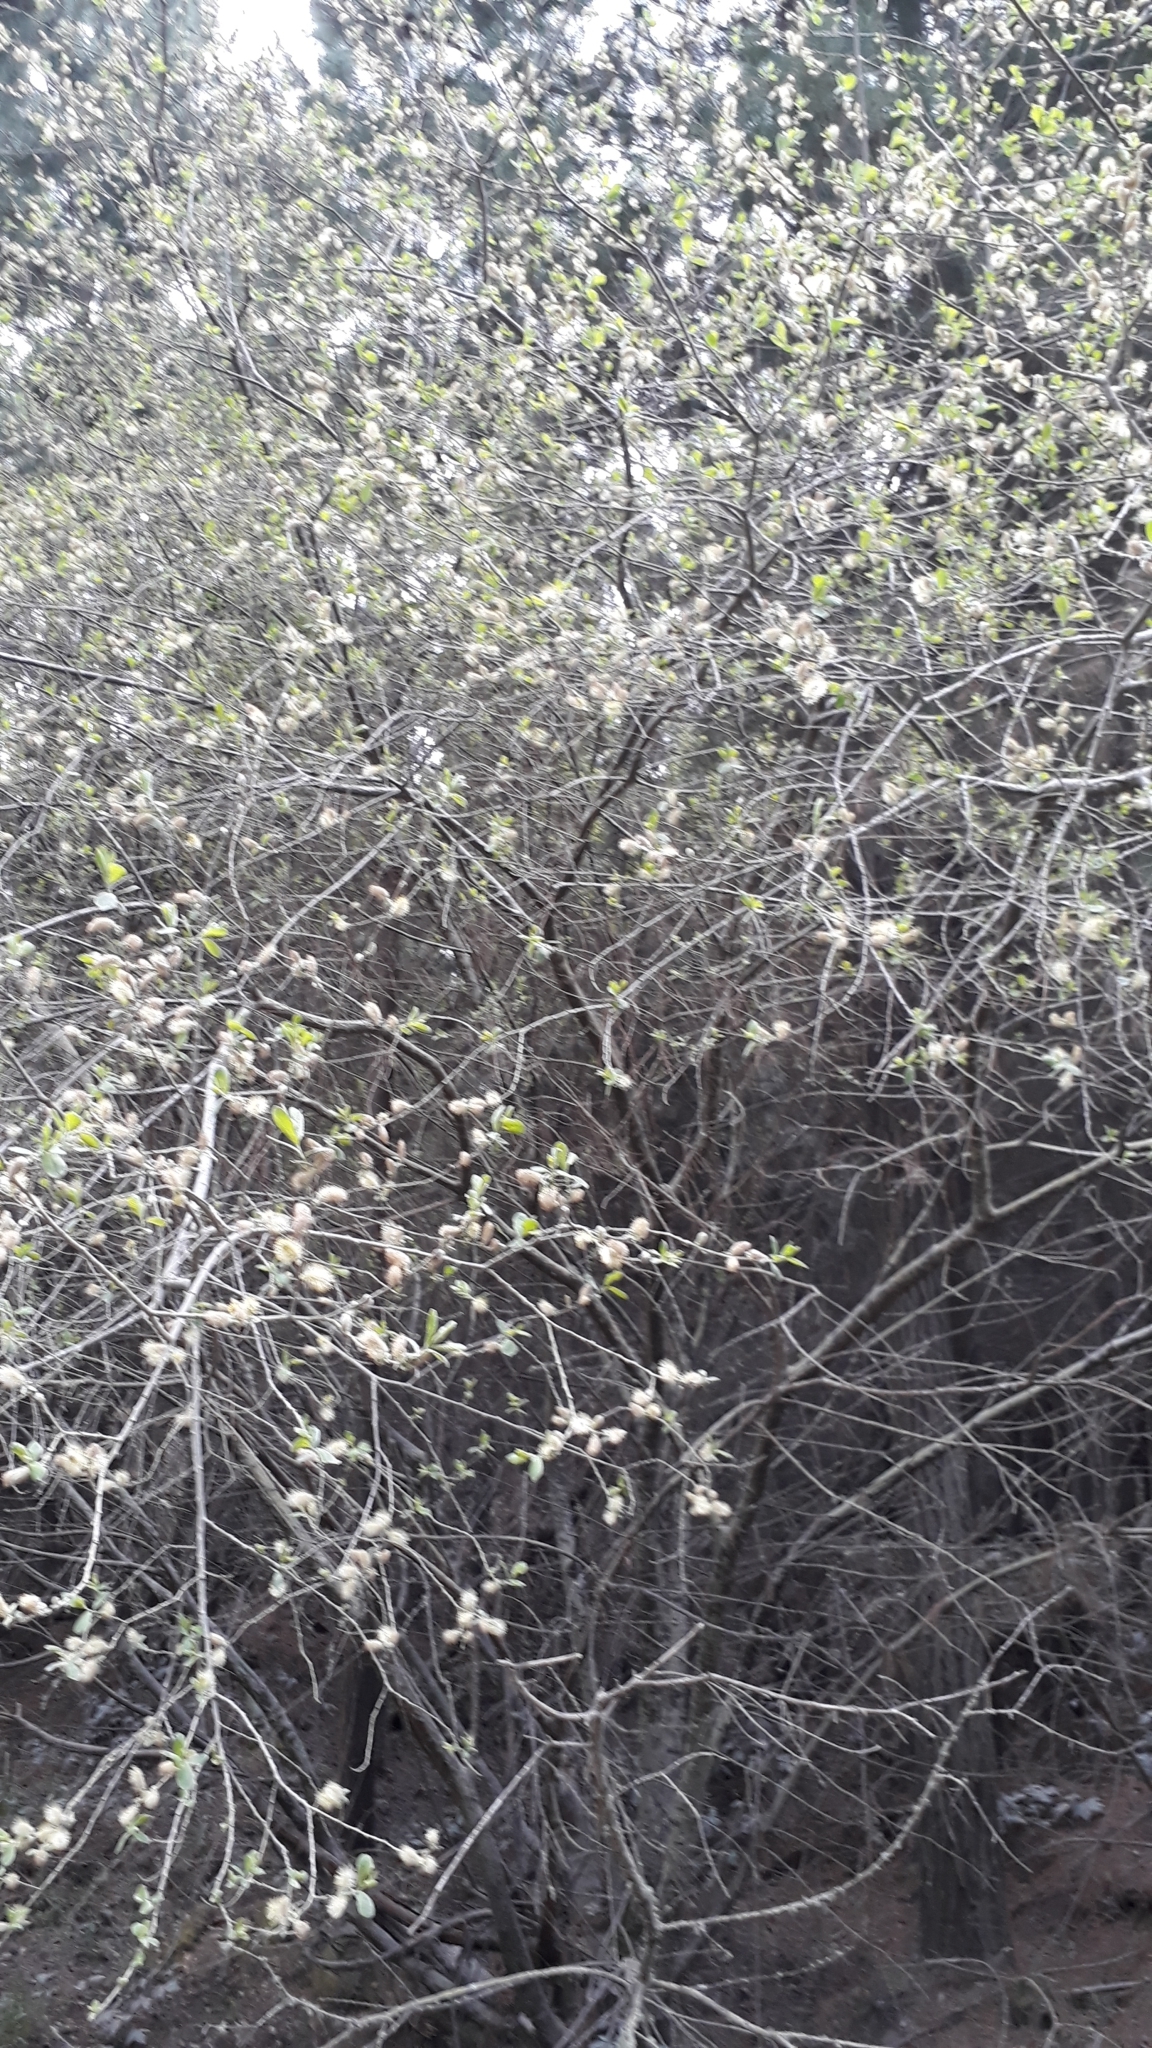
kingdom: Plantae
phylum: Tracheophyta
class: Magnoliopsida
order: Malpighiales
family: Salicaceae
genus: Salix
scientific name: Salix cinerea
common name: Common sallow
